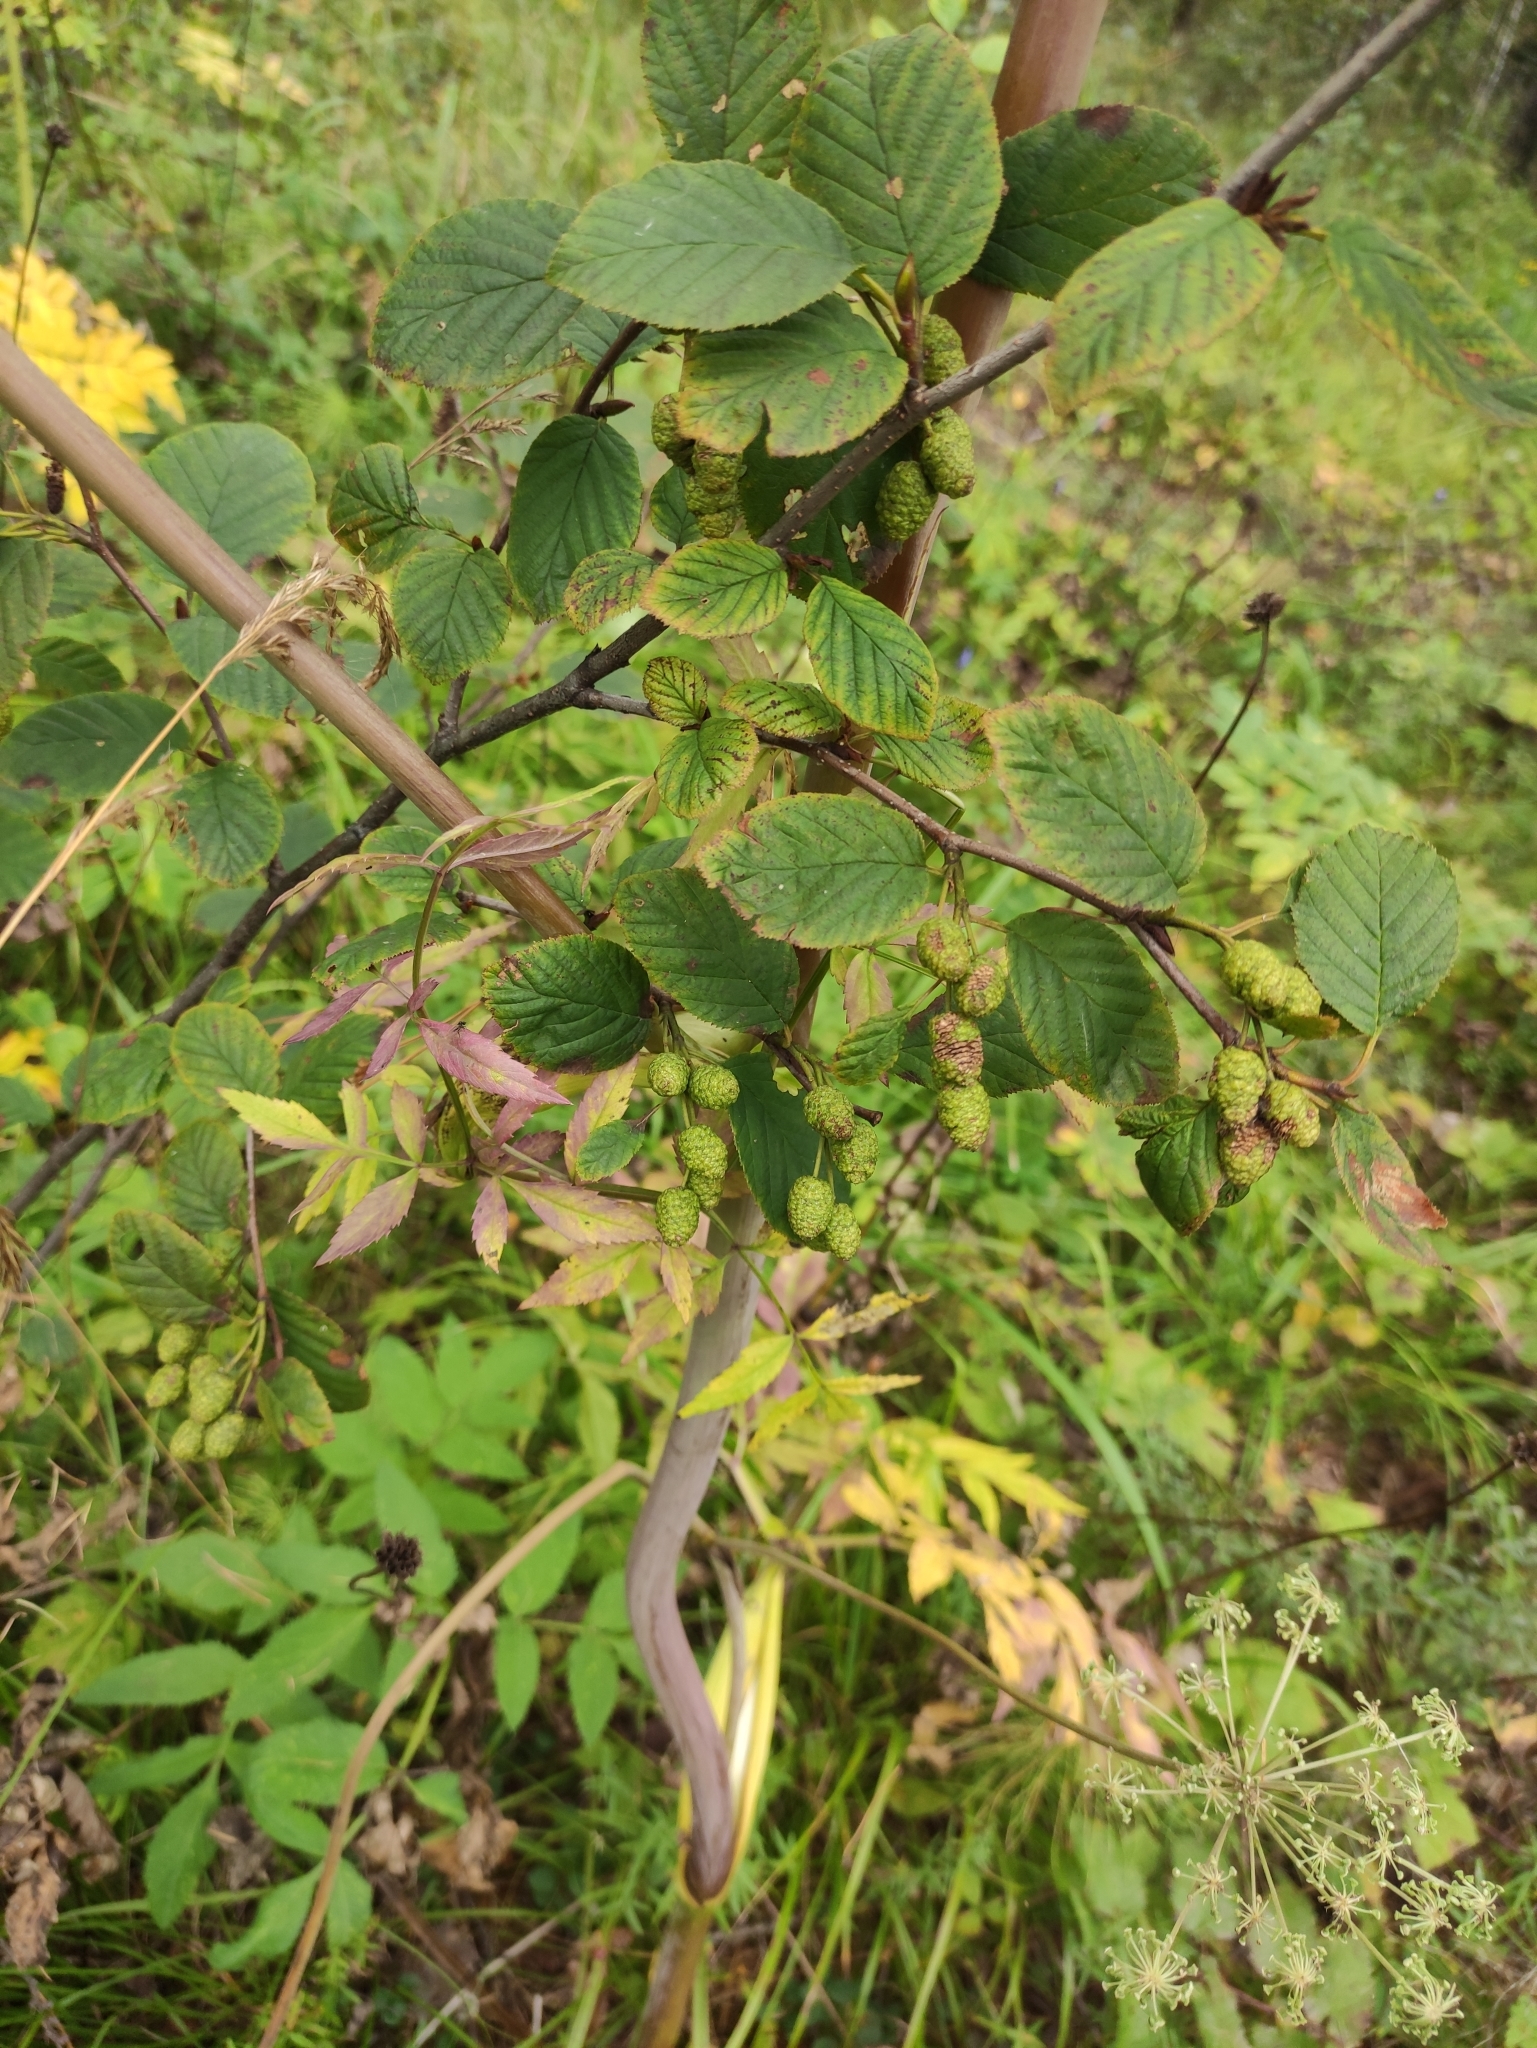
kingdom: Plantae
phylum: Tracheophyta
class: Magnoliopsida
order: Fagales
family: Betulaceae
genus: Alnus
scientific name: Alnus alnobetula
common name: Green alder
